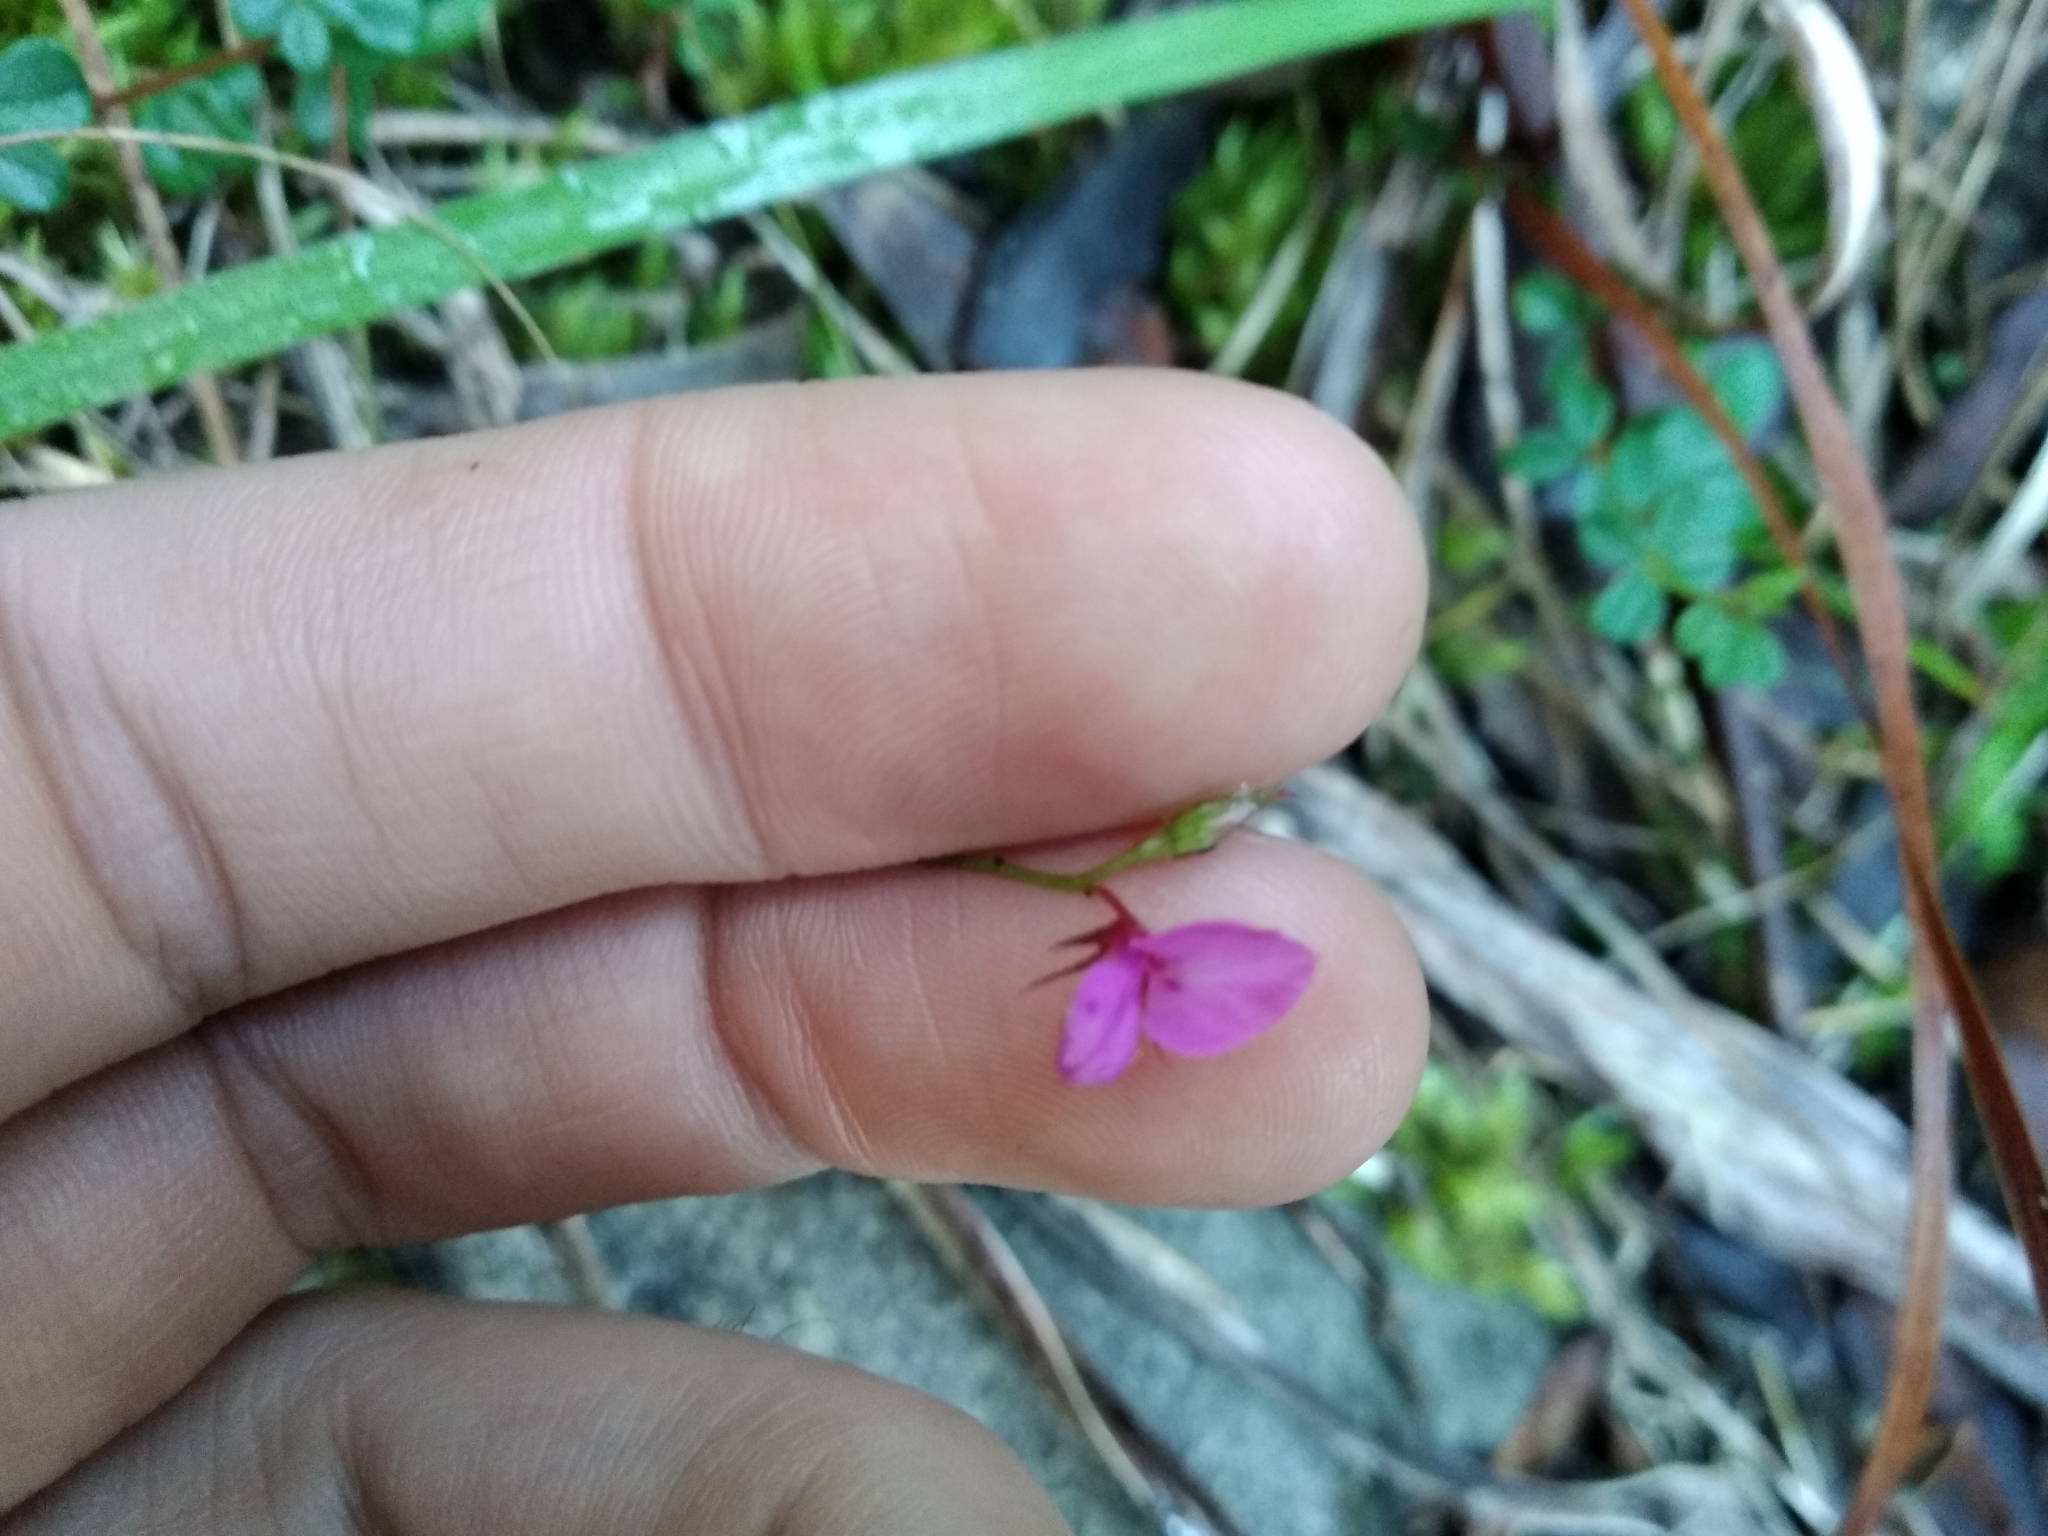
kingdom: Plantae
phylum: Tracheophyta
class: Magnoliopsida
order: Fabales
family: Fabaceae
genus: Indigofera
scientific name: Indigofera sarmentosa
